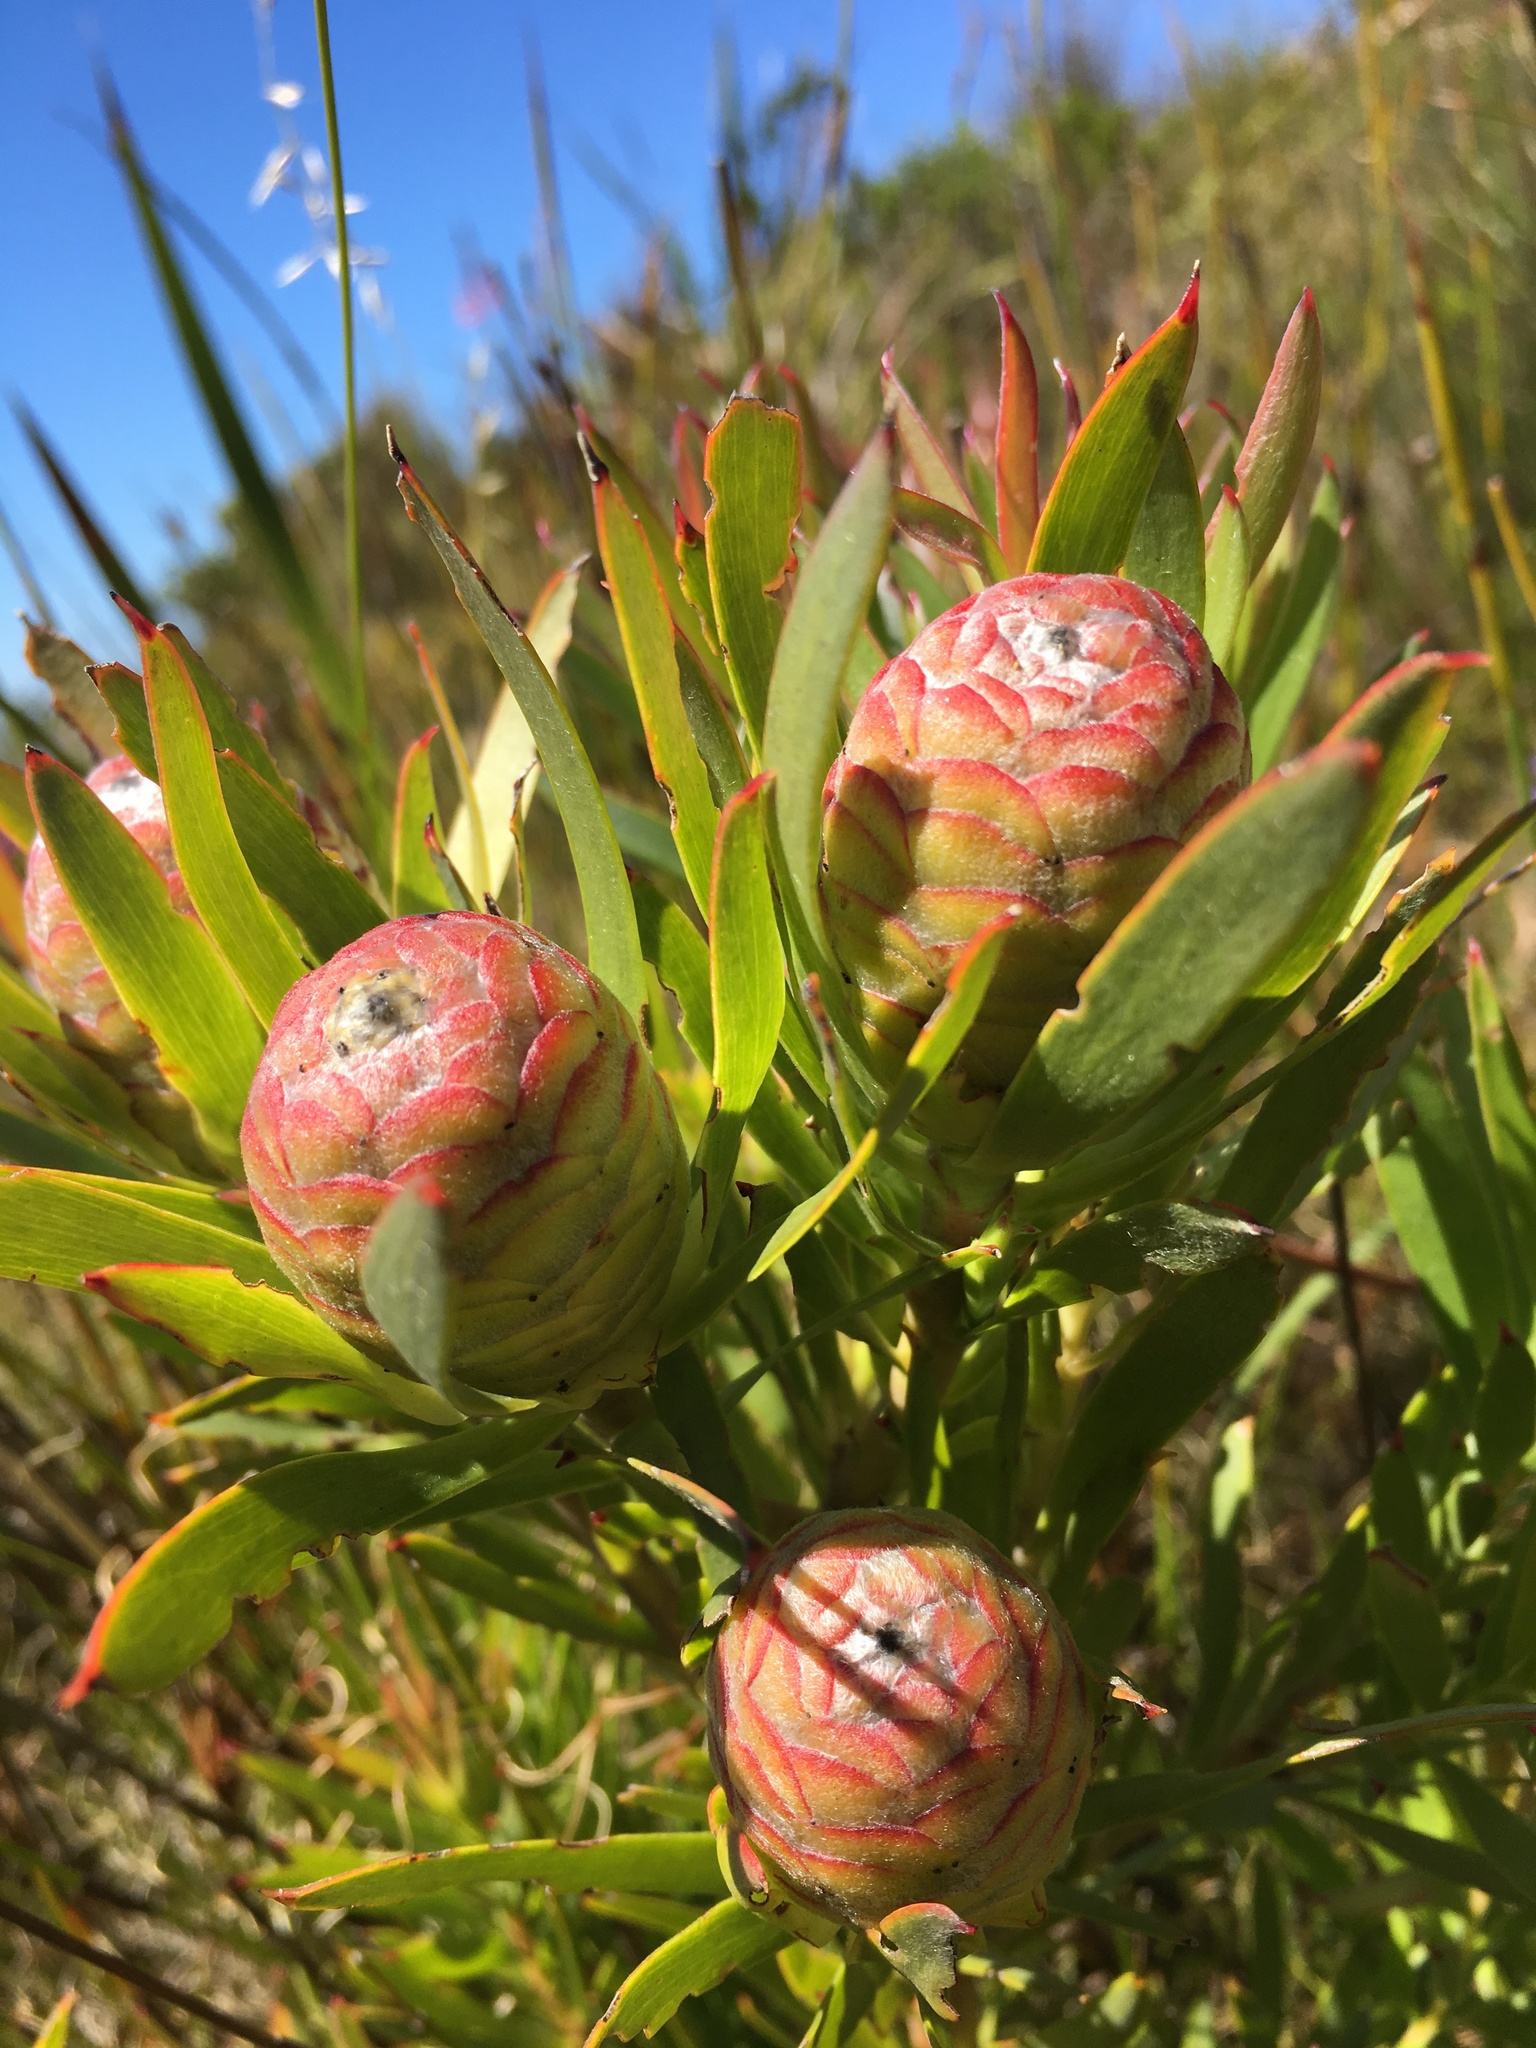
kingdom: Plantae
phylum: Tracheophyta
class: Magnoliopsida
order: Proteales
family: Proteaceae
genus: Leucadendron
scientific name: Leucadendron xanthoconus
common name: Sickle-leaf conebush
